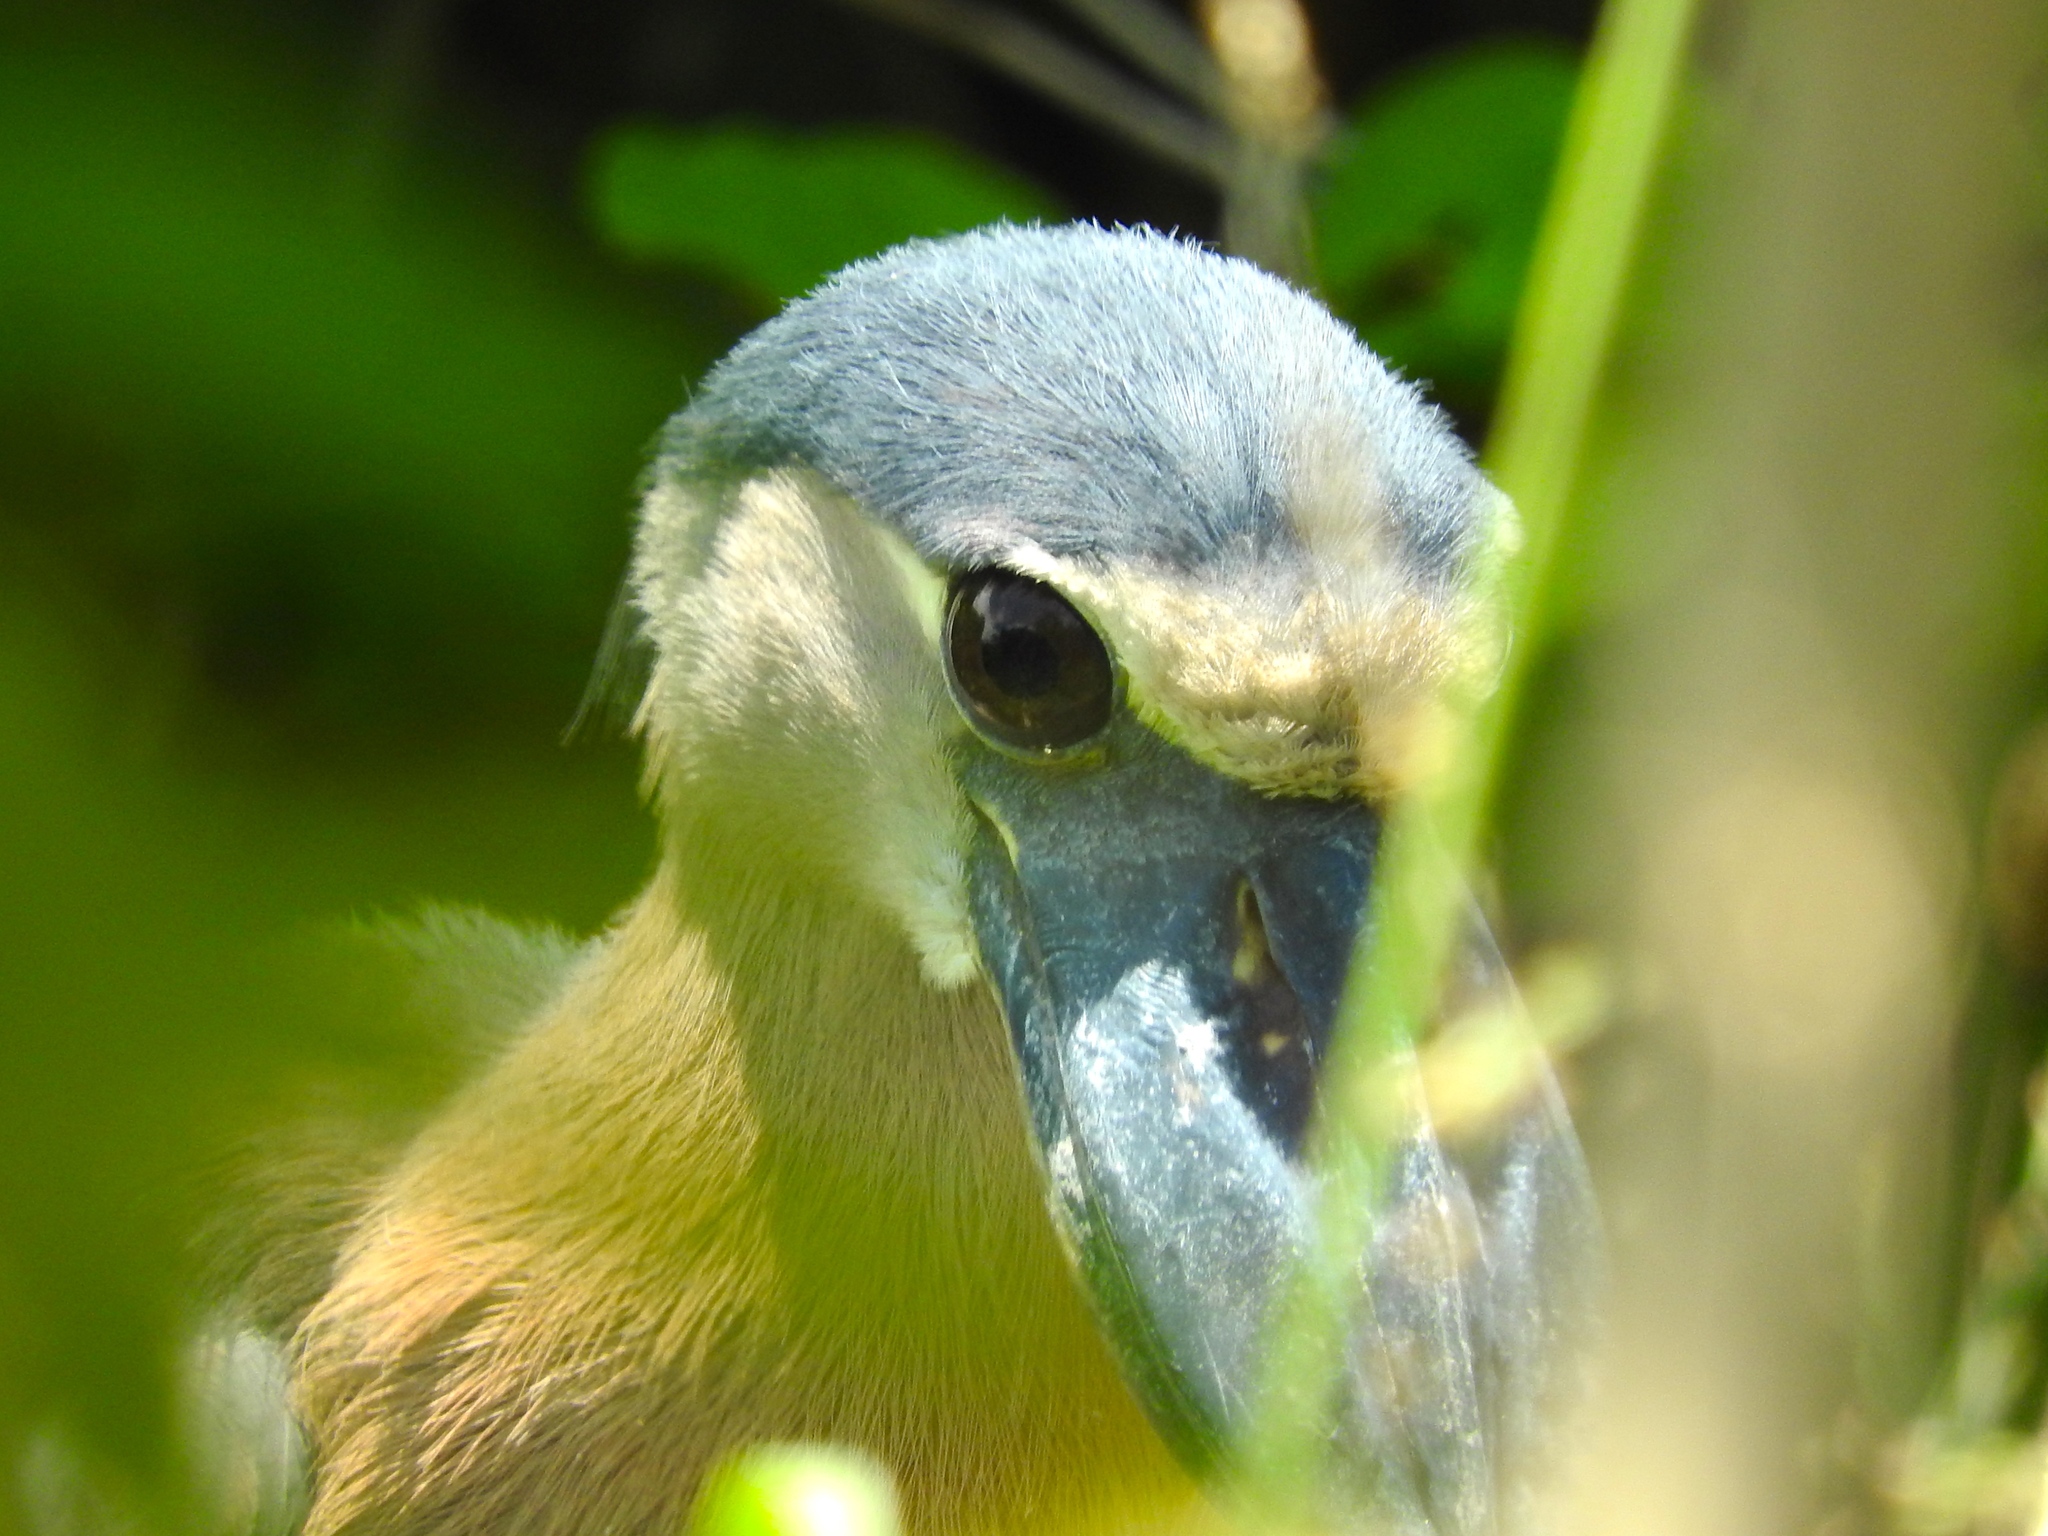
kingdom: Animalia
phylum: Chordata
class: Aves
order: Pelecaniformes
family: Ardeidae
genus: Cochlearius
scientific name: Cochlearius cochlearius
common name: Boat-billed heron
